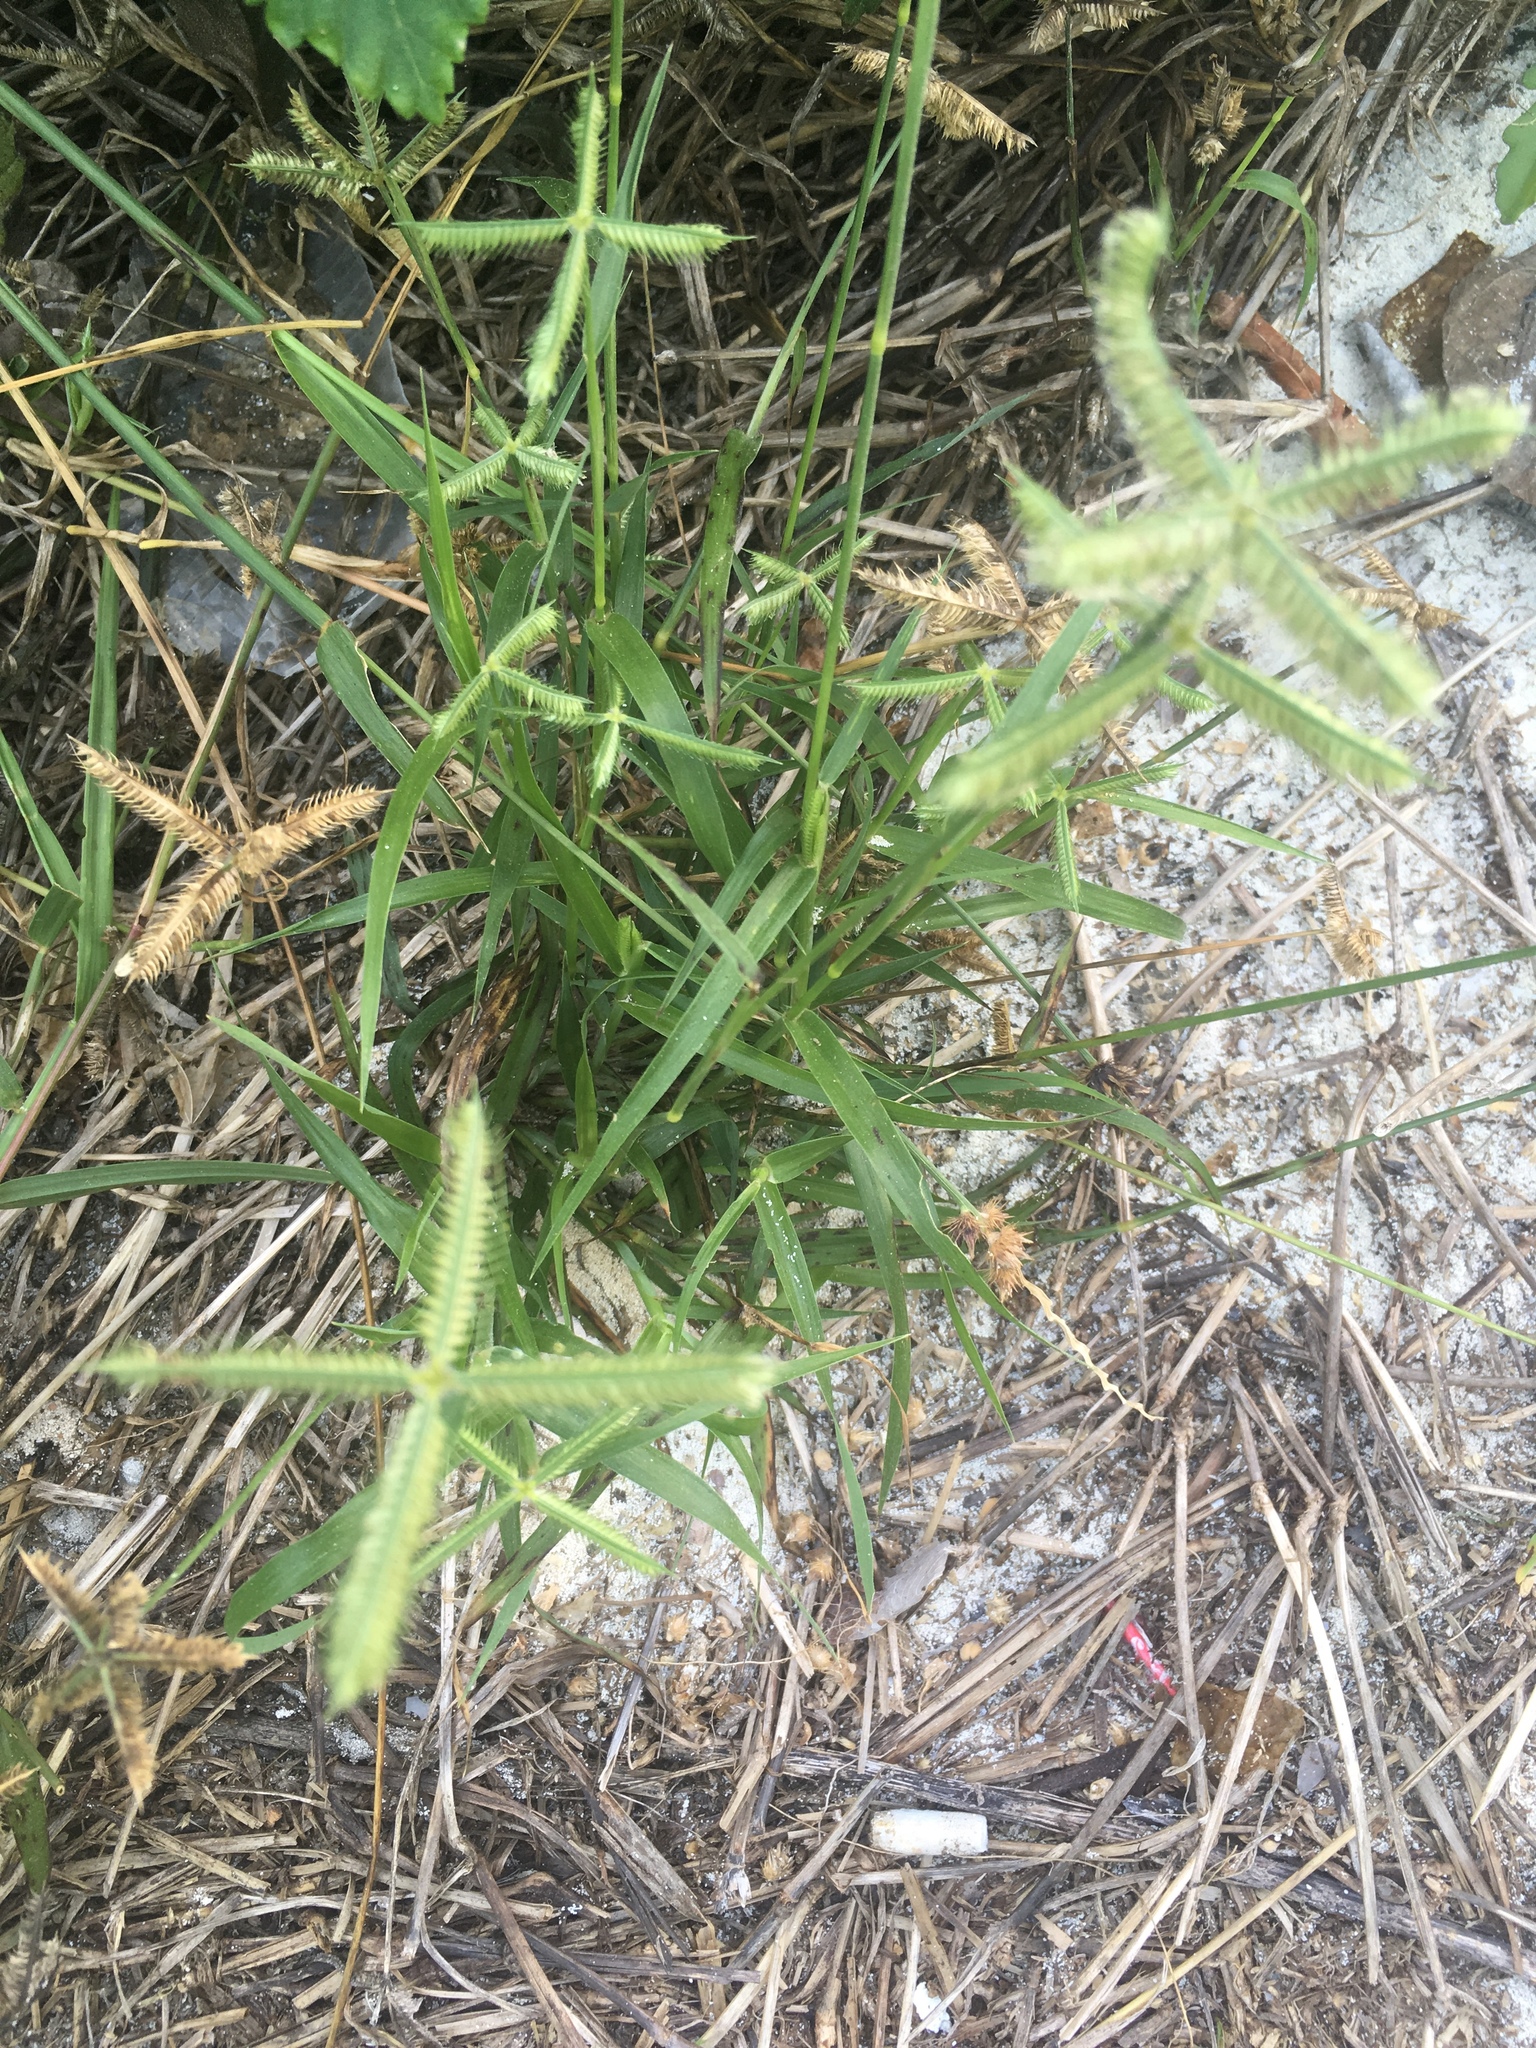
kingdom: Plantae
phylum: Tracheophyta
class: Liliopsida
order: Poales
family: Poaceae
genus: Dactyloctenium
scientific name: Dactyloctenium aegyptium
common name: Egyptian grass
